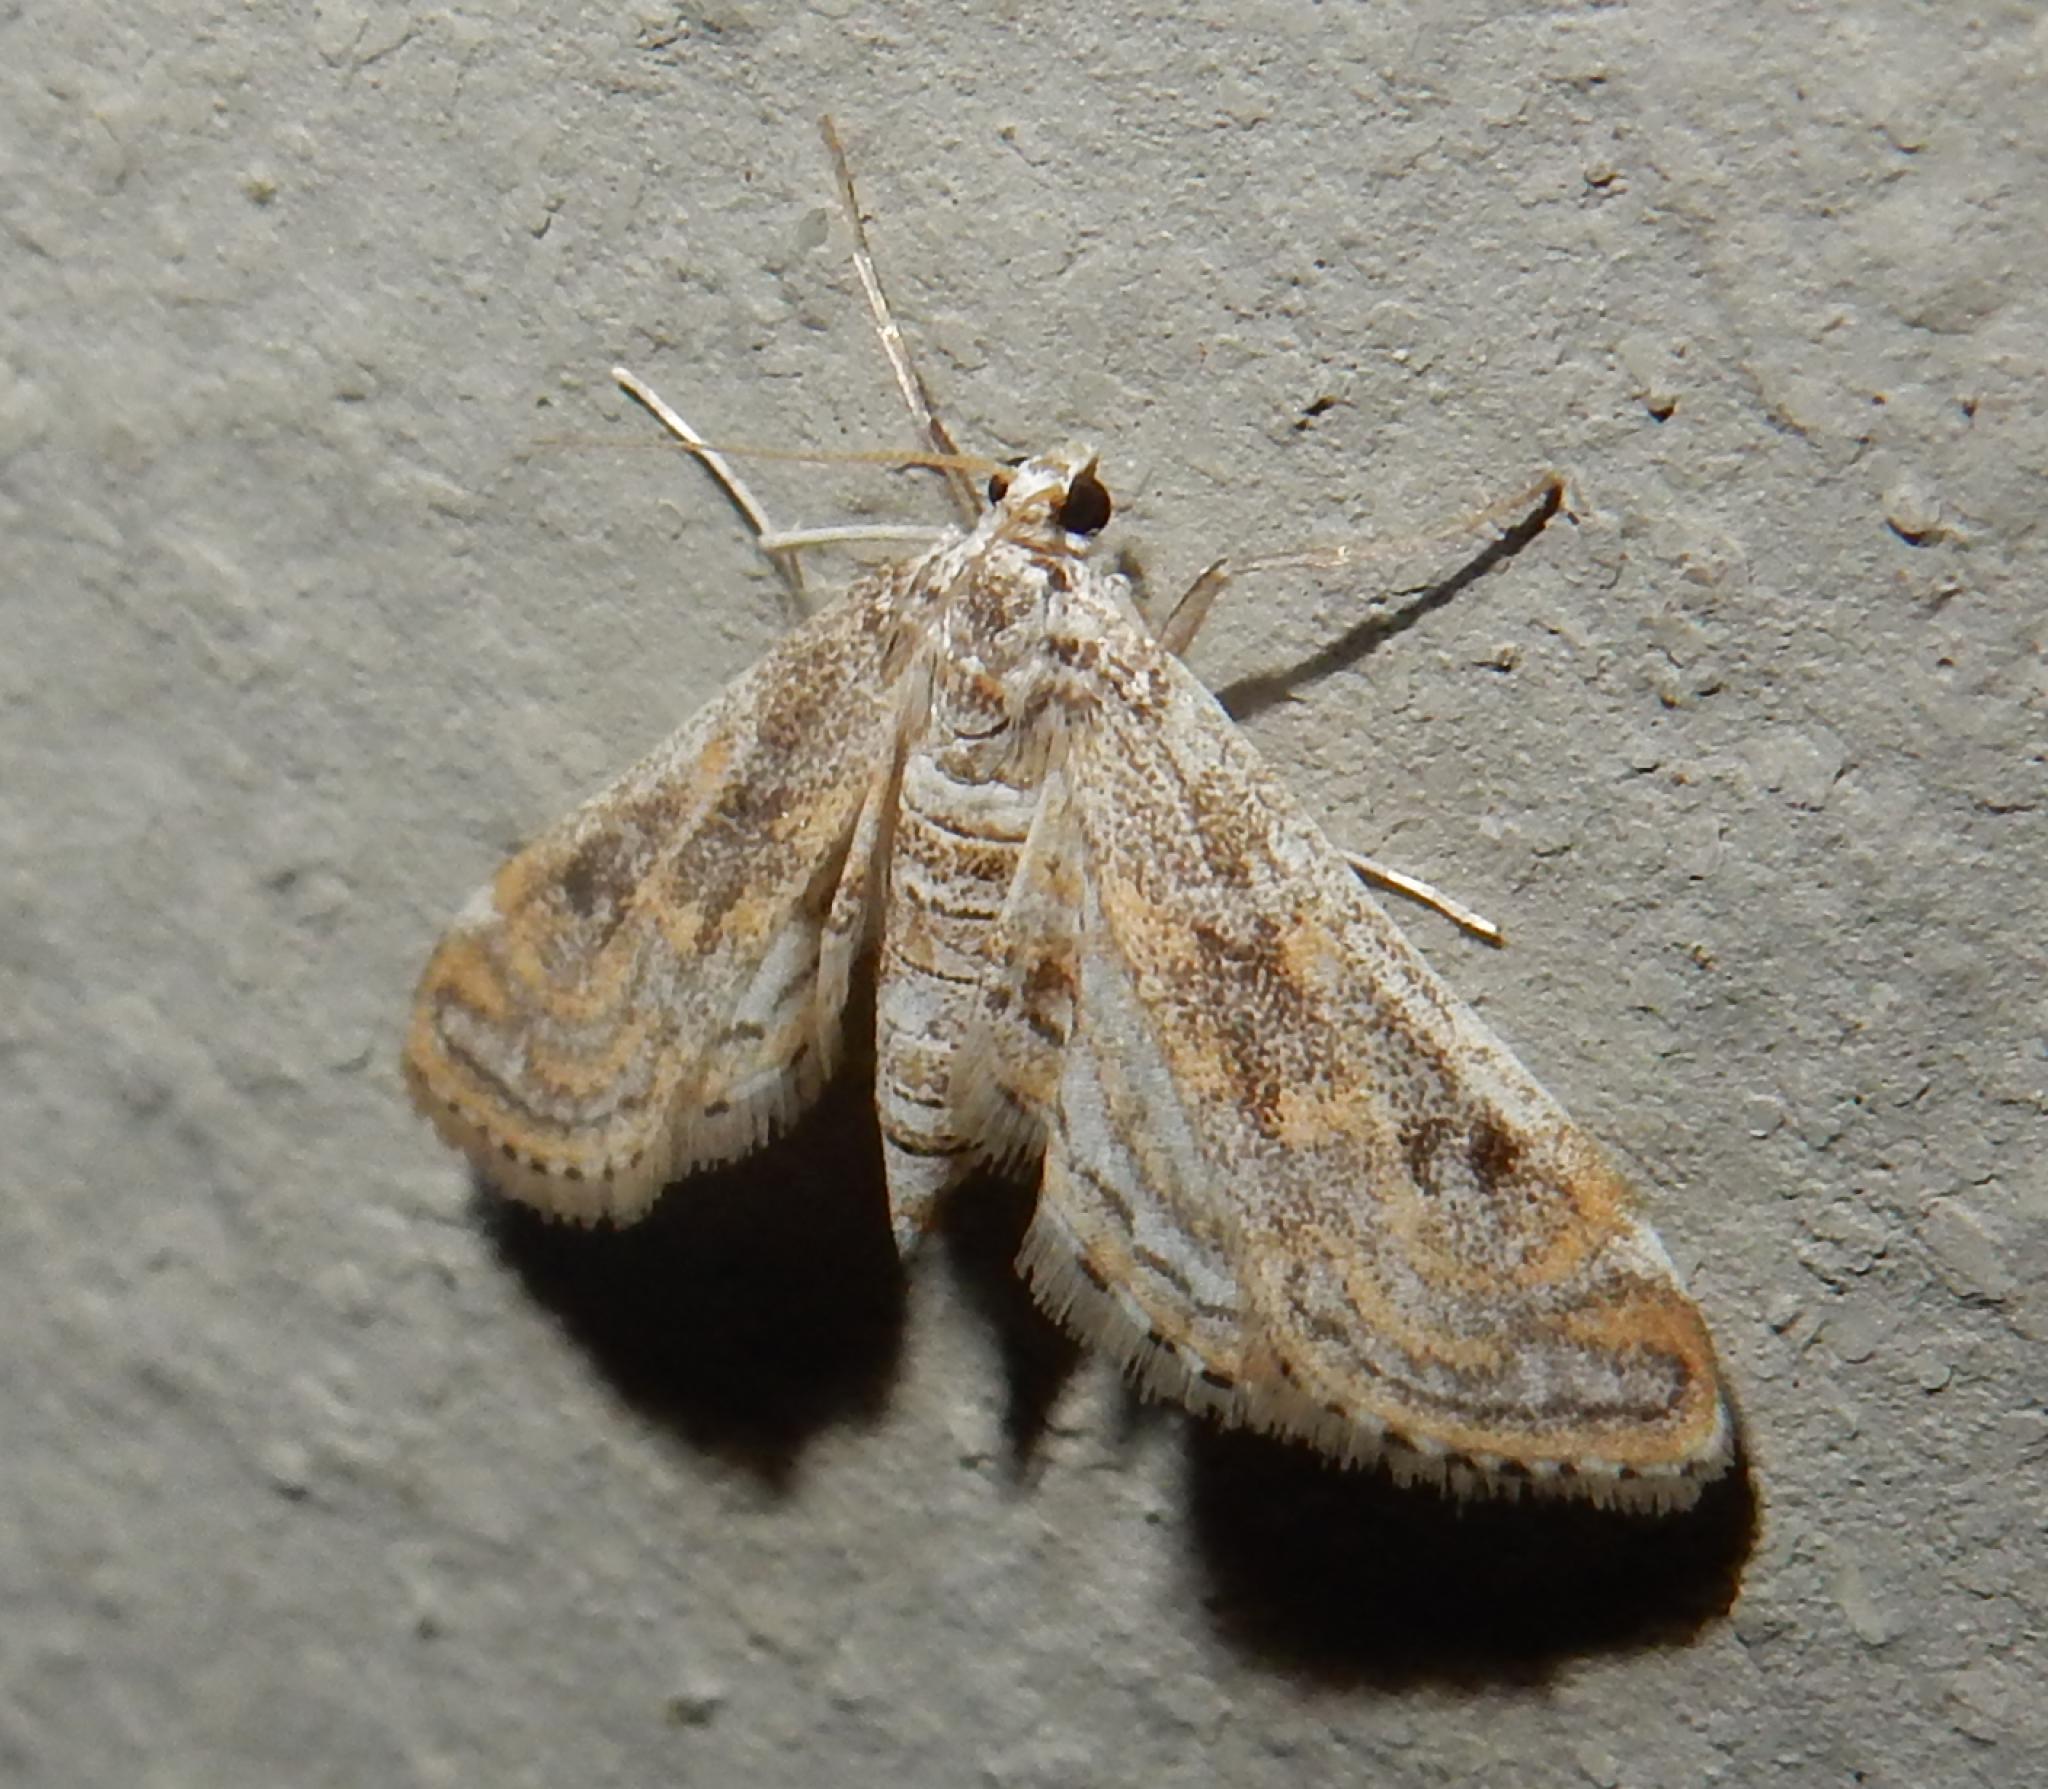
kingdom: Animalia
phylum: Arthropoda
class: Insecta
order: Lepidoptera
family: Crambidae
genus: Parapoynx
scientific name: Parapoynx fluctuosalis
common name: Moth
